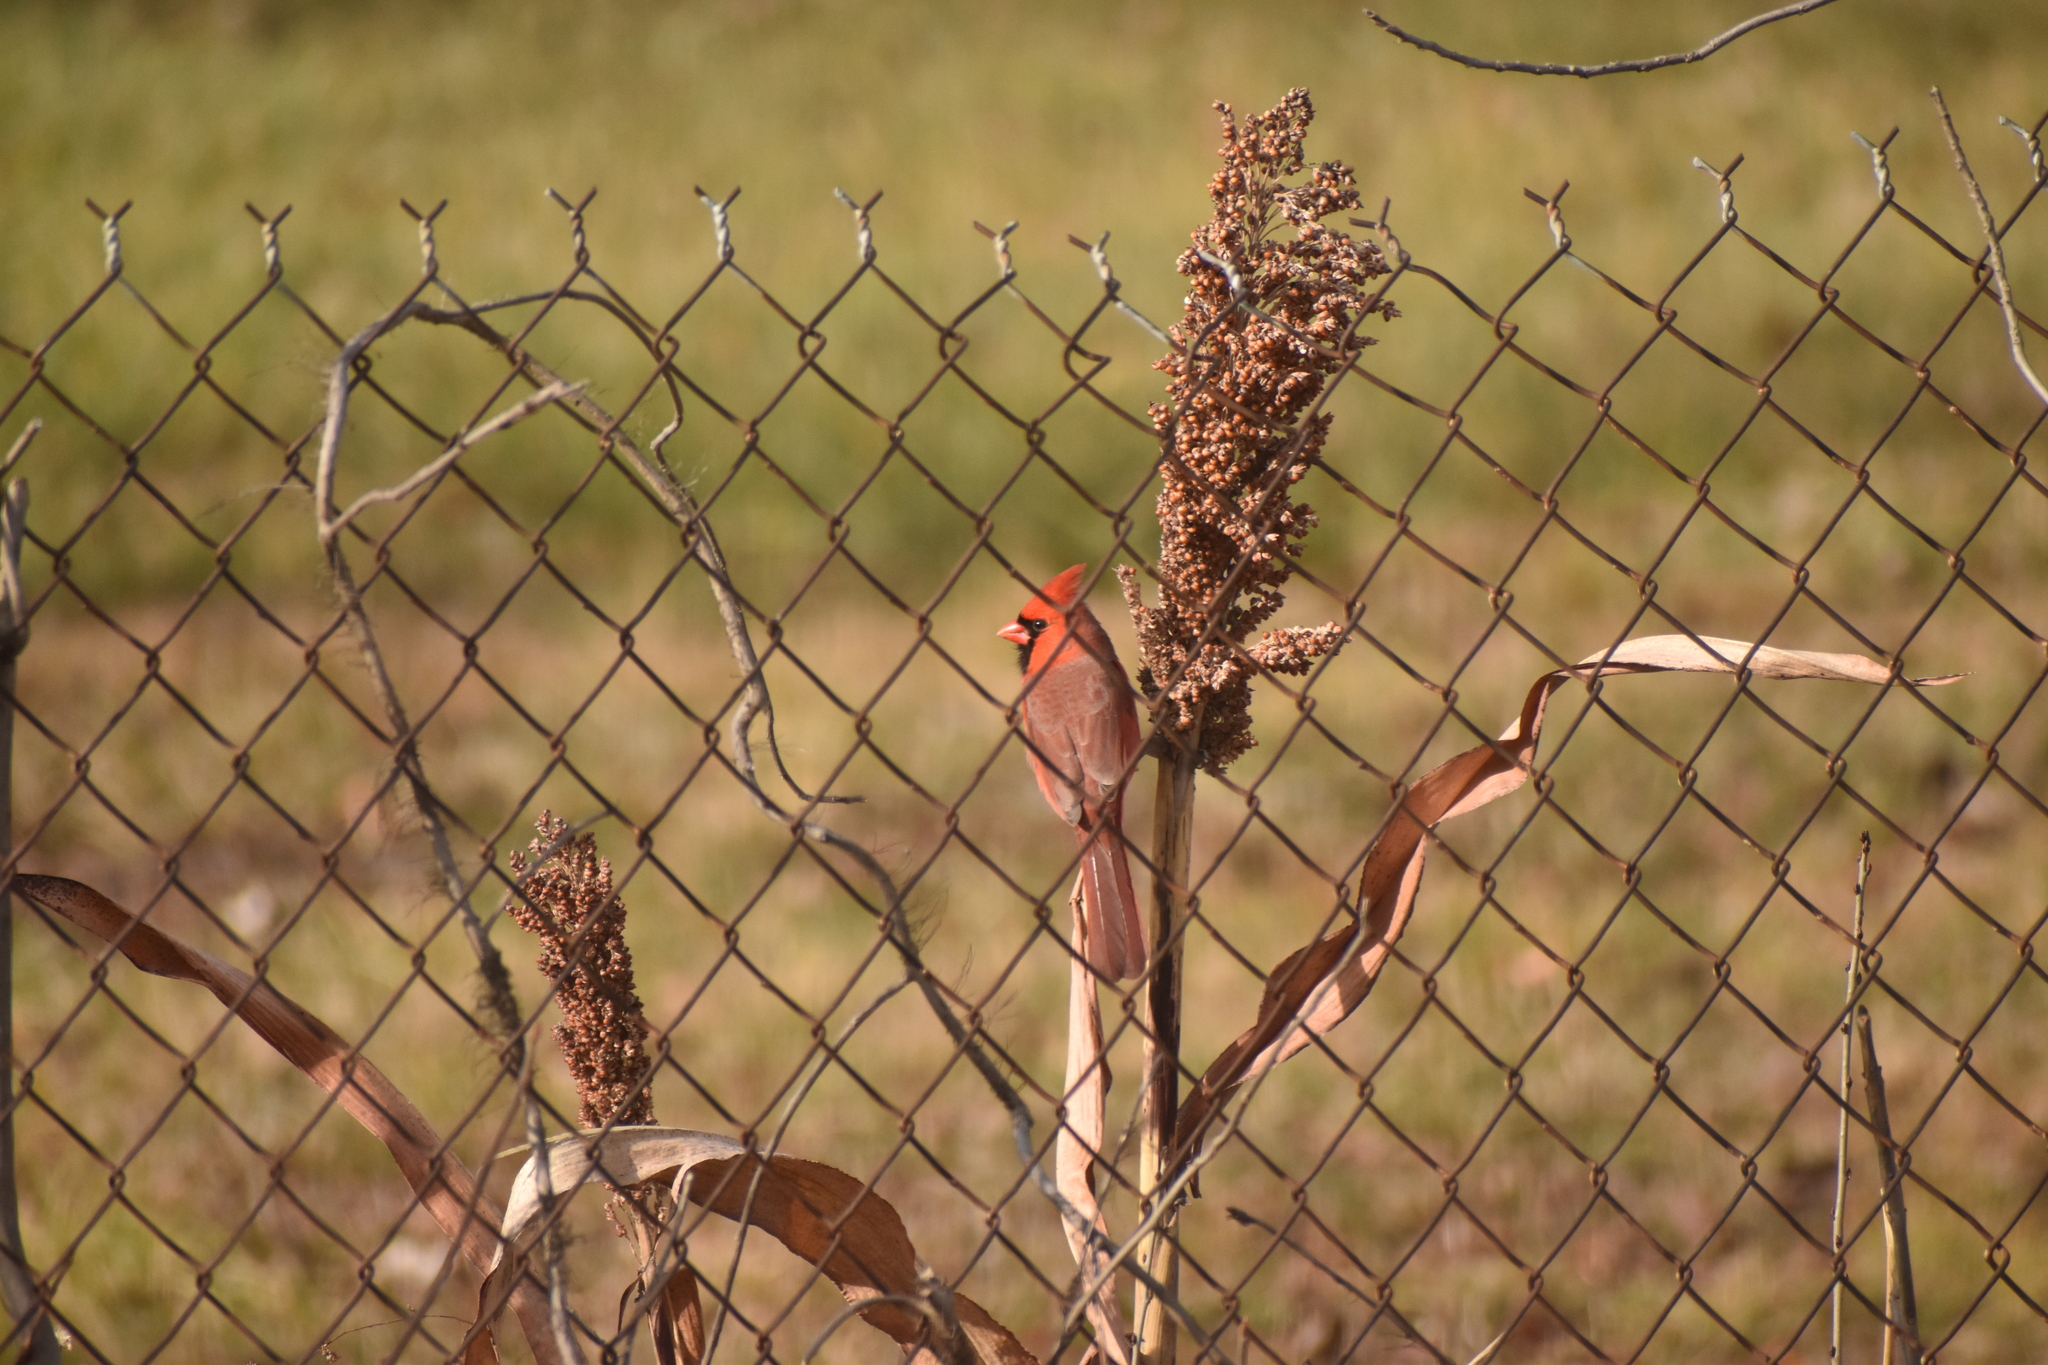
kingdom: Animalia
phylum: Chordata
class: Aves
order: Passeriformes
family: Cardinalidae
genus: Cardinalis
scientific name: Cardinalis cardinalis
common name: Northern cardinal
